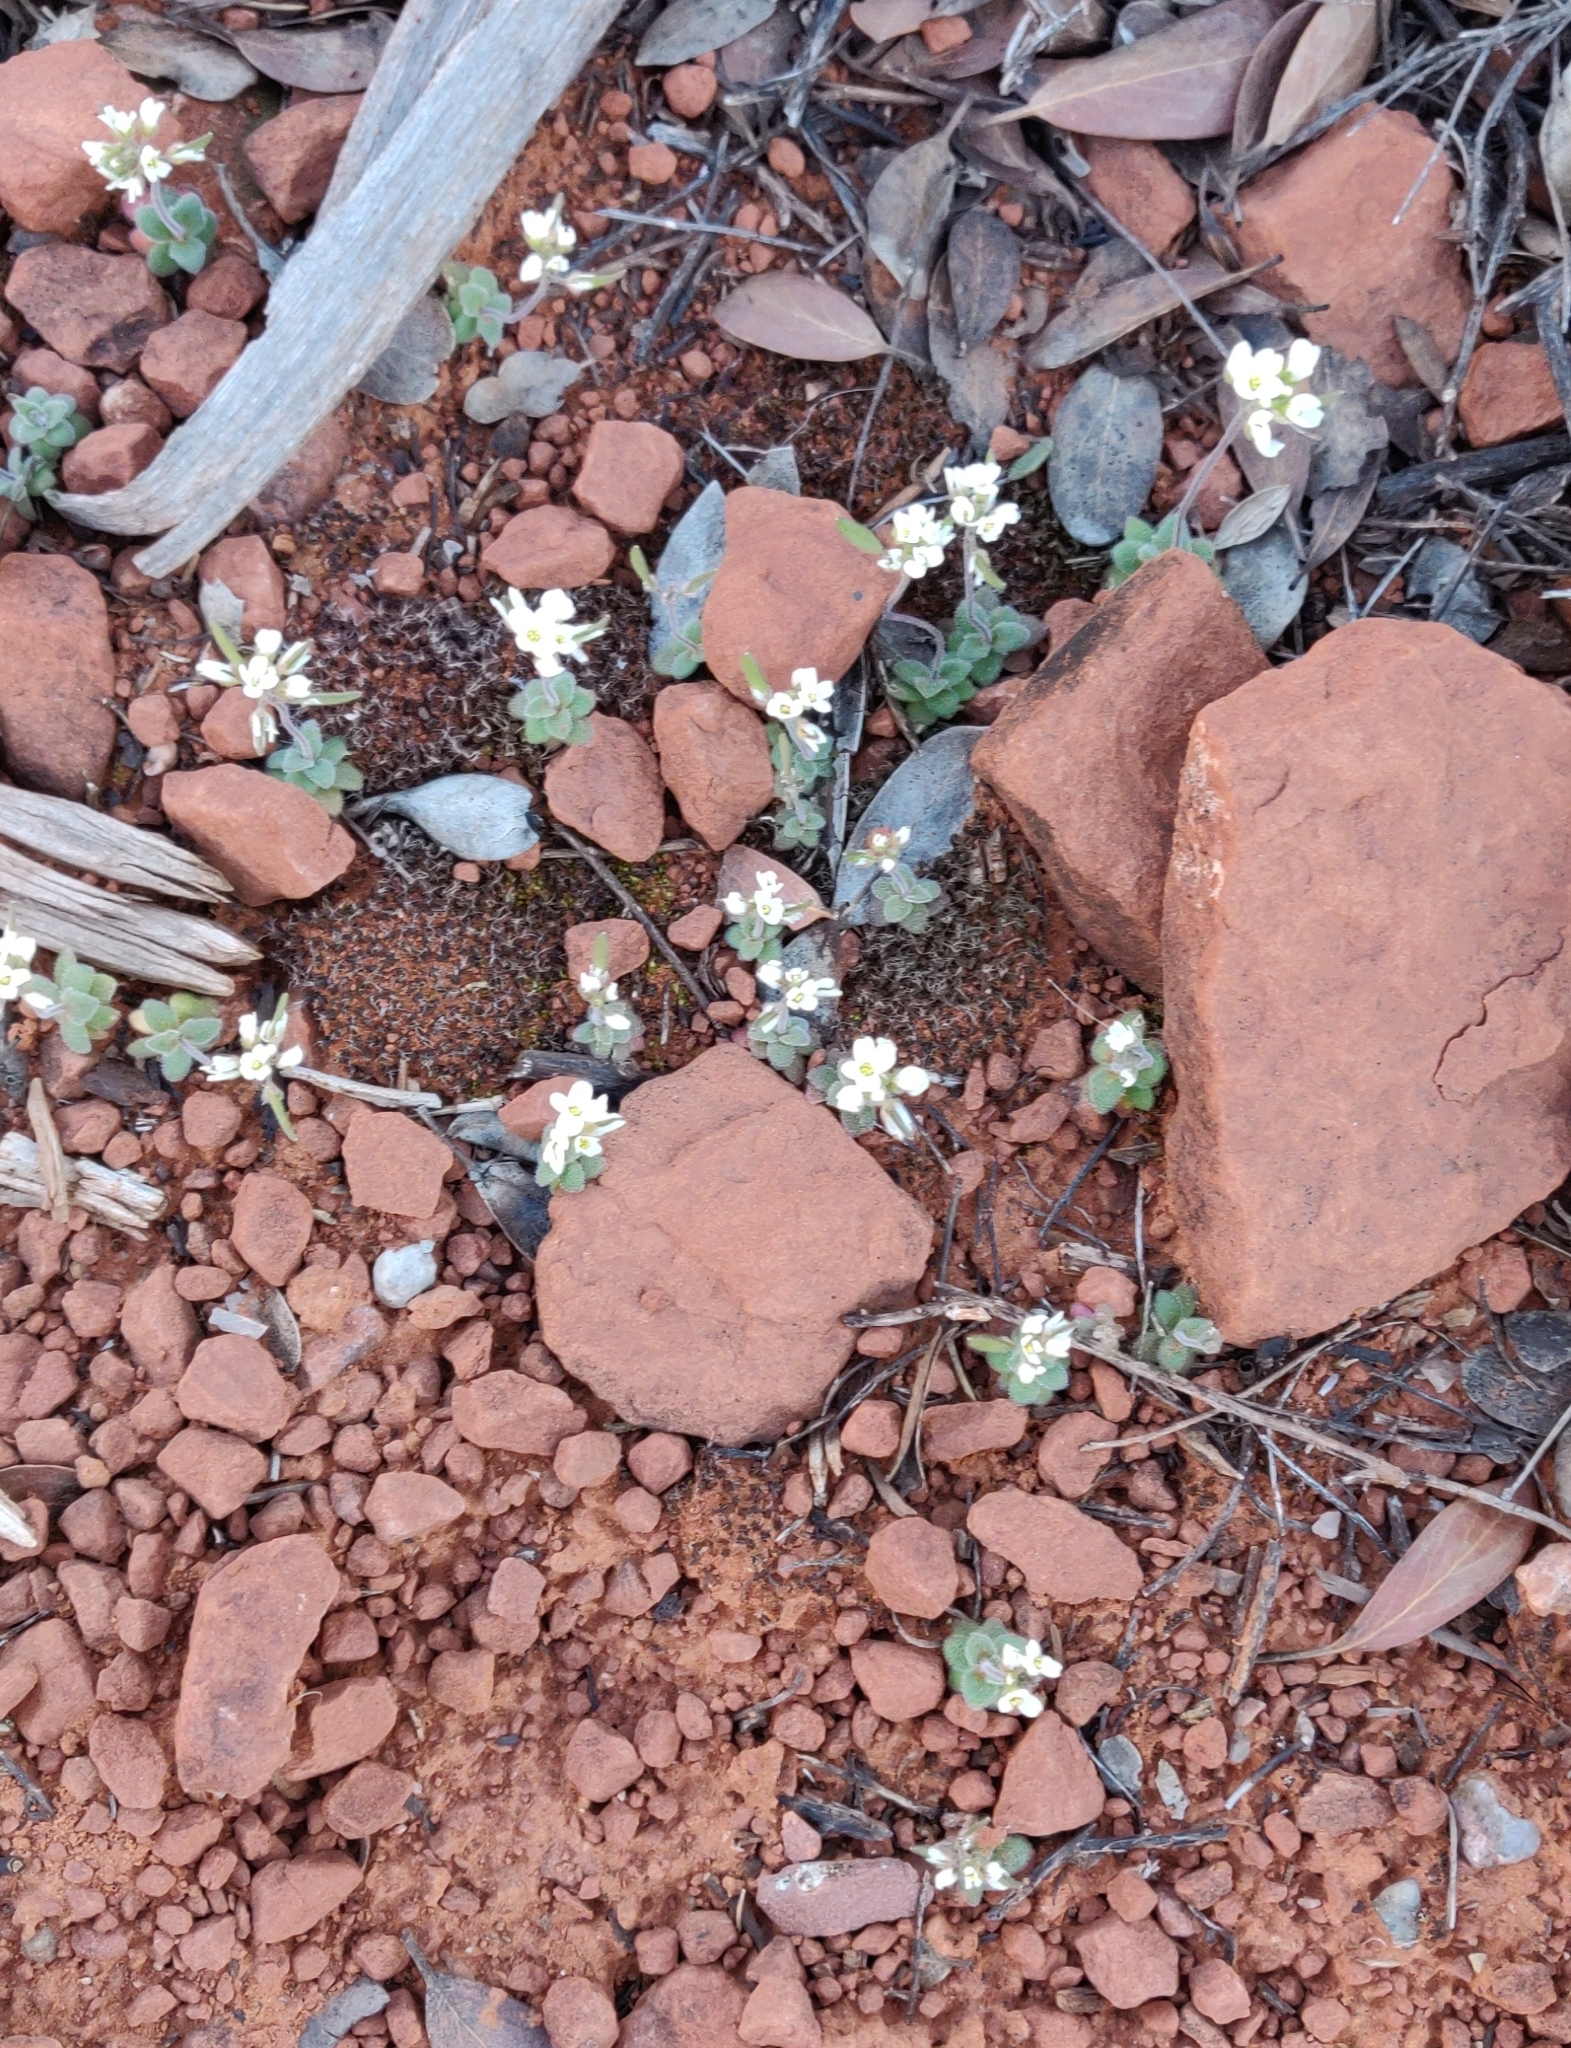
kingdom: Plantae
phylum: Tracheophyta
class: Magnoliopsida
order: Brassicales
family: Brassicaceae
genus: Tomostima
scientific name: Tomostima cuneifolia
